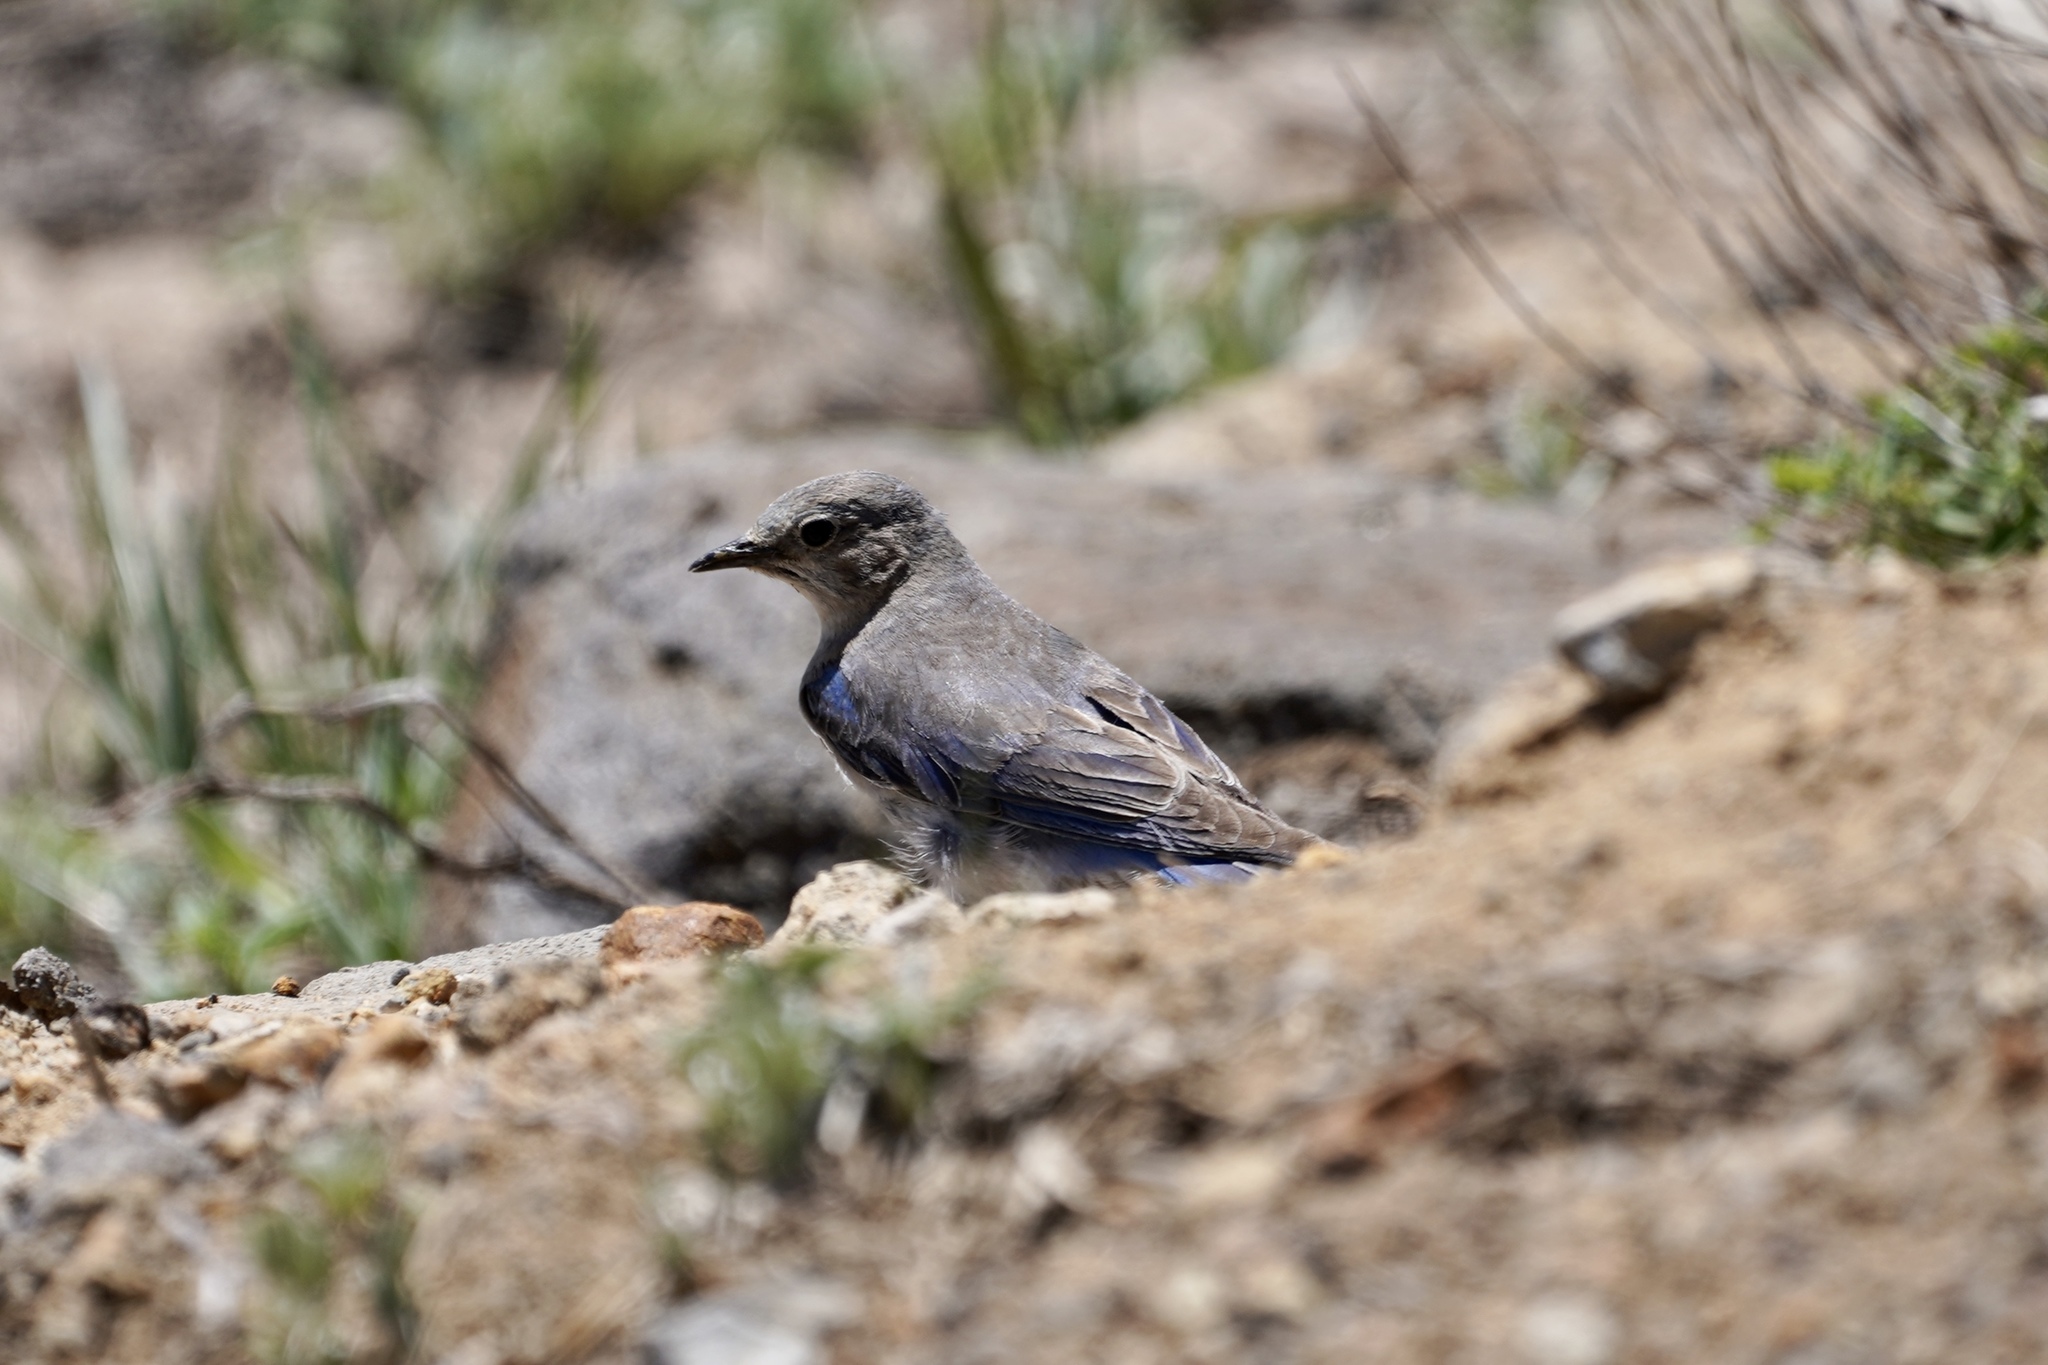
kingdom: Animalia
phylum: Chordata
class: Aves
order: Passeriformes
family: Turdidae
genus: Sialia
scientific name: Sialia currucoides
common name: Mountain bluebird
